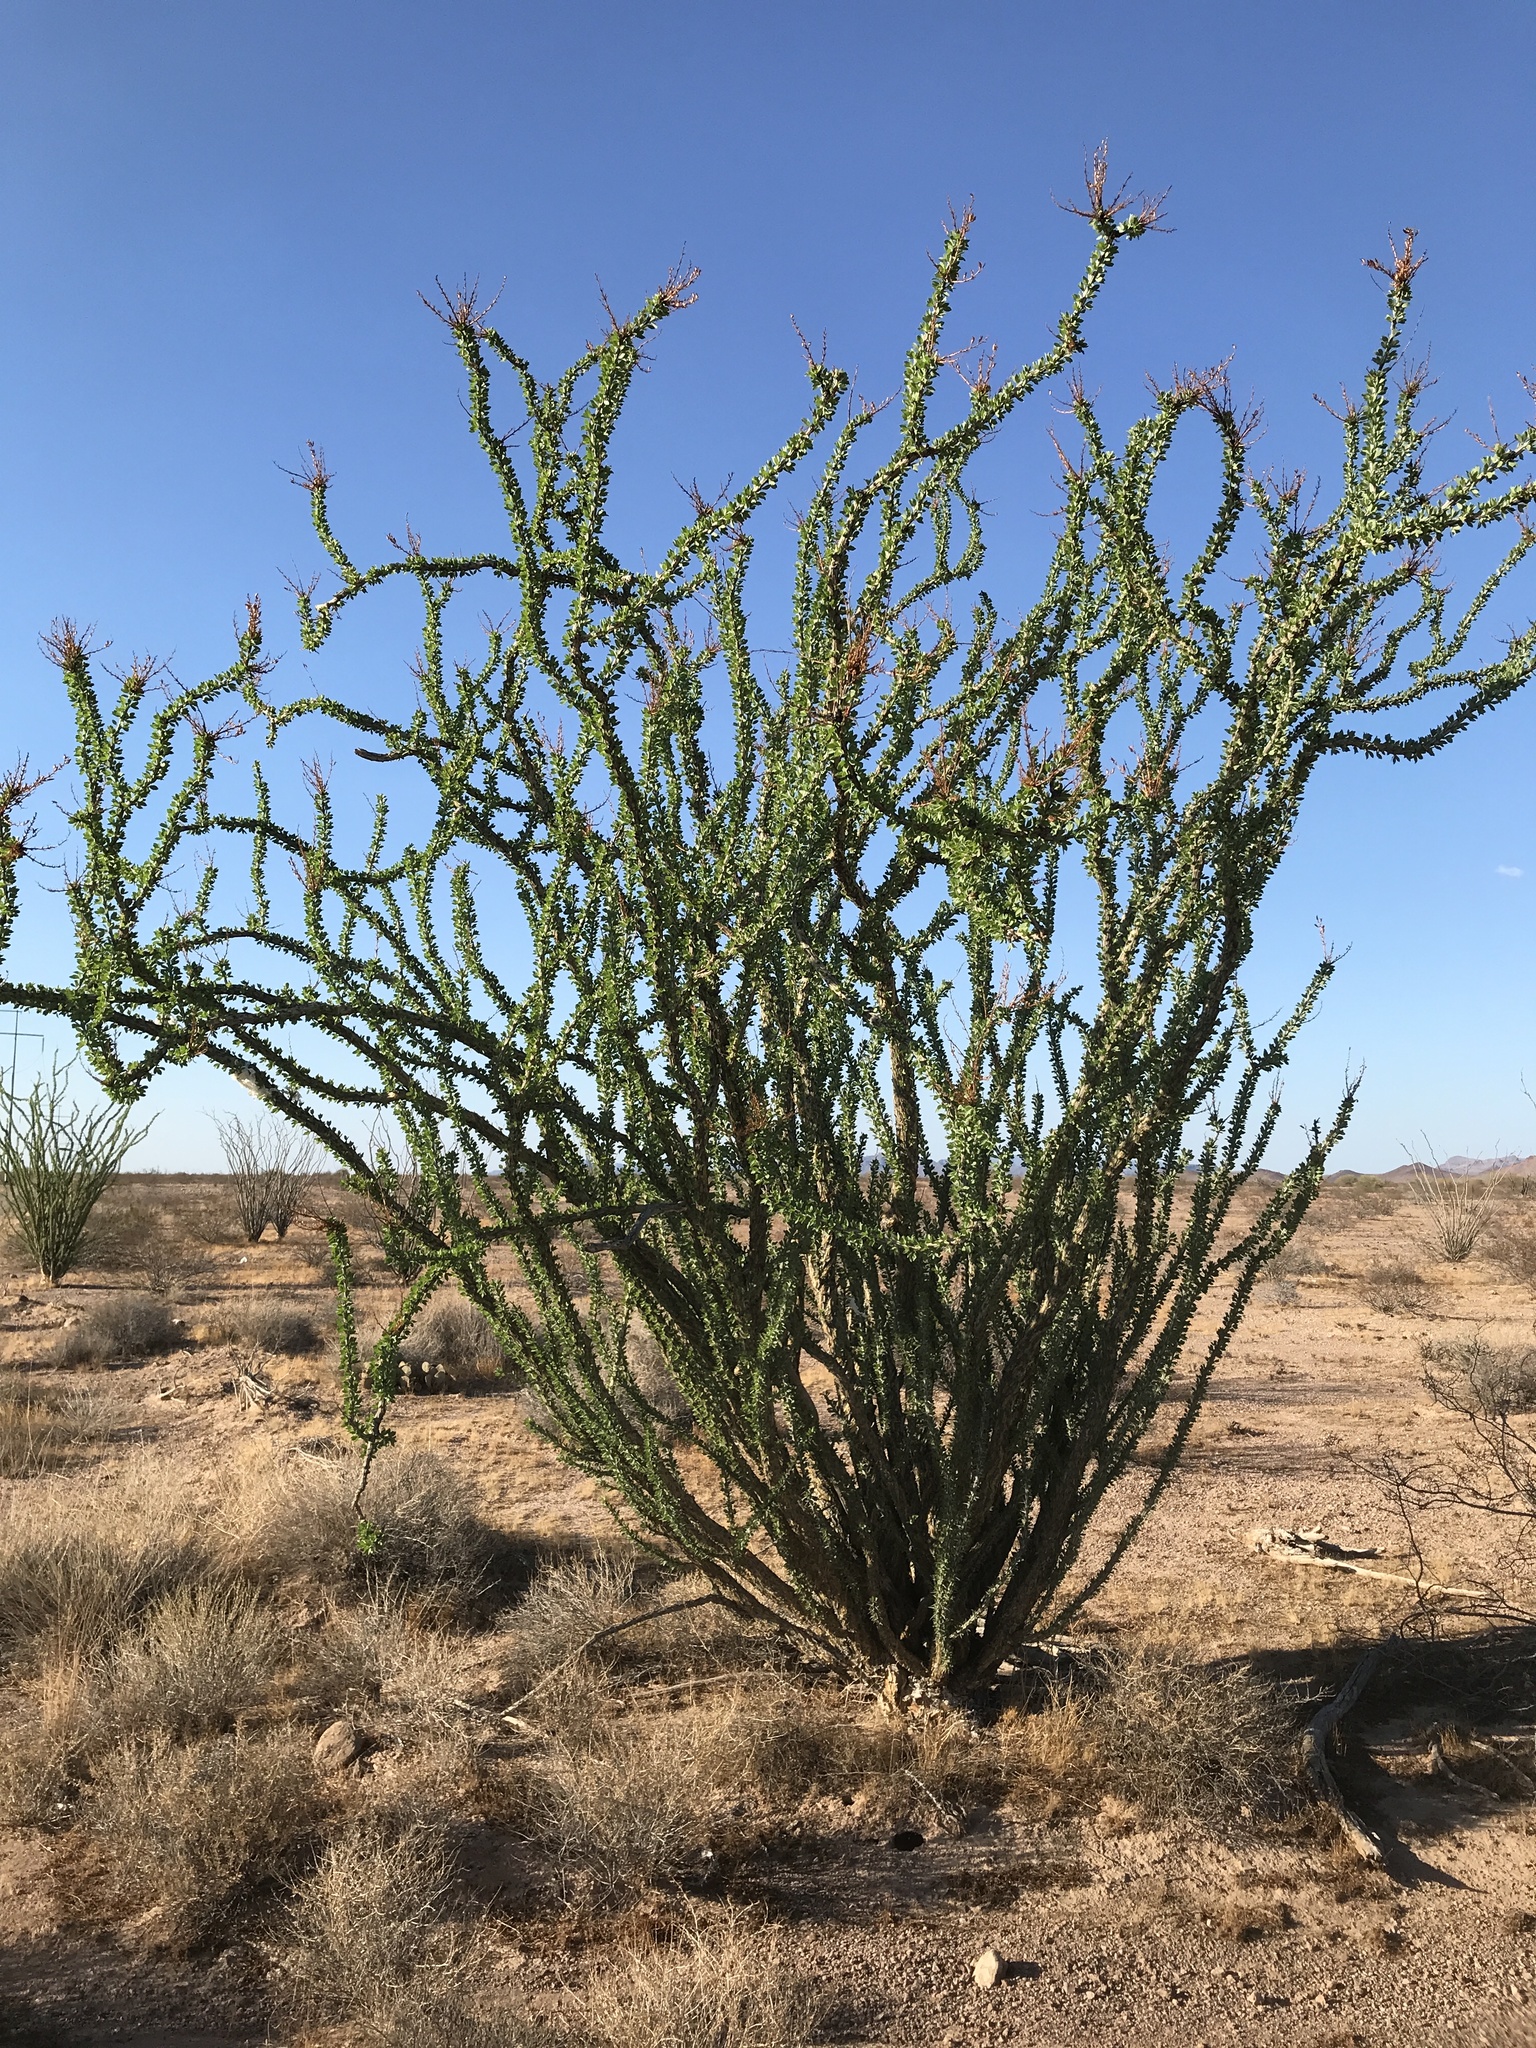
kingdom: Plantae
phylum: Tracheophyta
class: Magnoliopsida
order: Ericales
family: Fouquieriaceae
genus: Fouquieria
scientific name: Fouquieria splendens
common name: Vine-cactus
